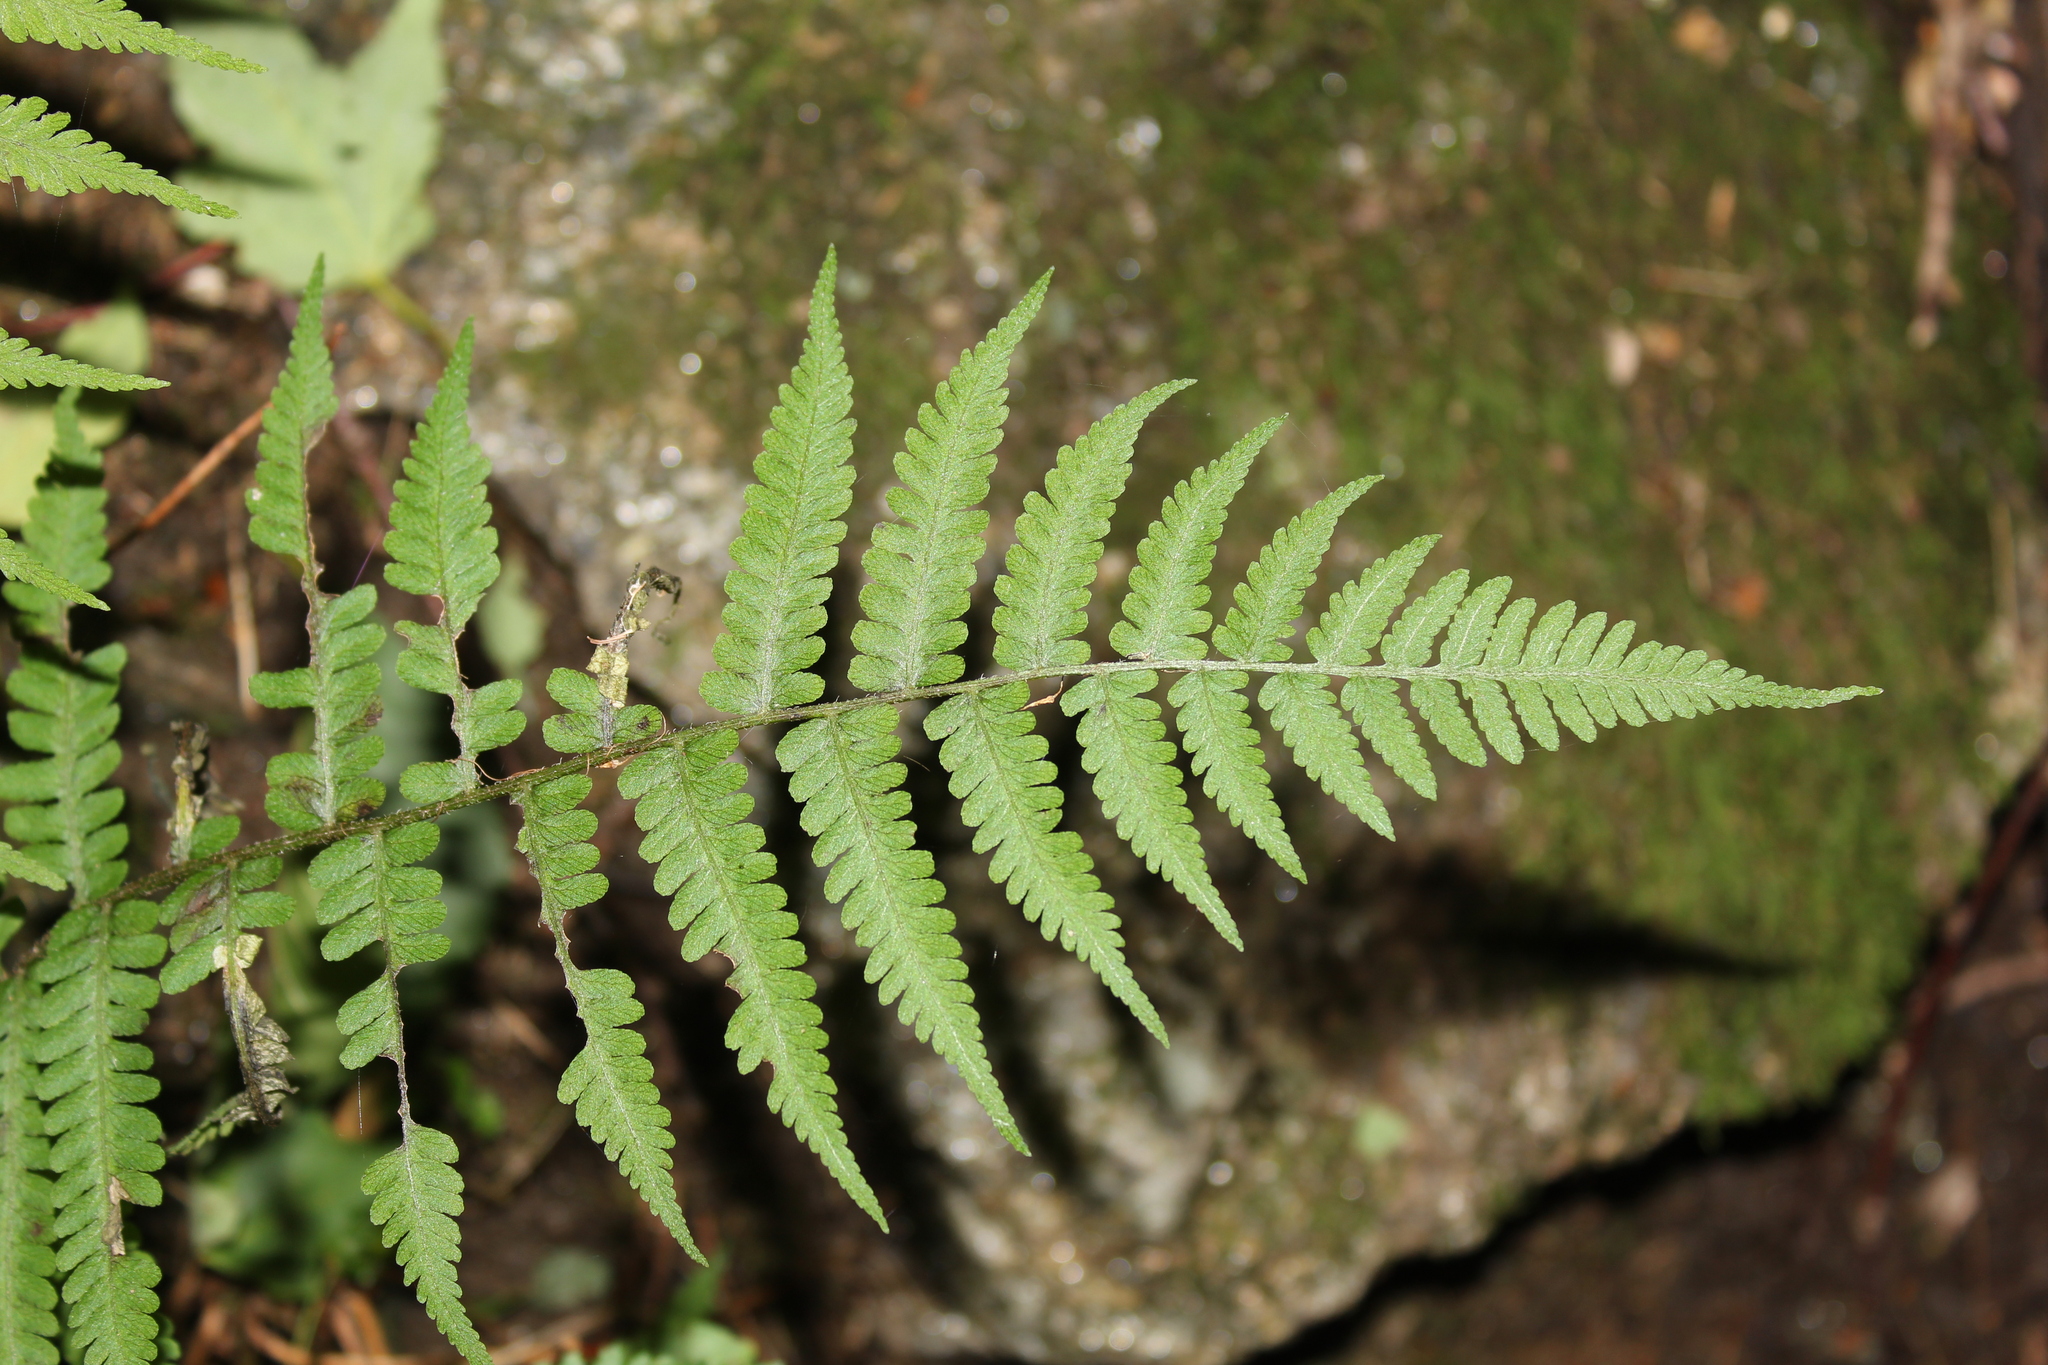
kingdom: Plantae
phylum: Tracheophyta
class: Polypodiopsida
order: Polypodiales
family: Athyriaceae
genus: Deparia
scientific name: Deparia acrostichoides
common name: Silver false spleenwort
